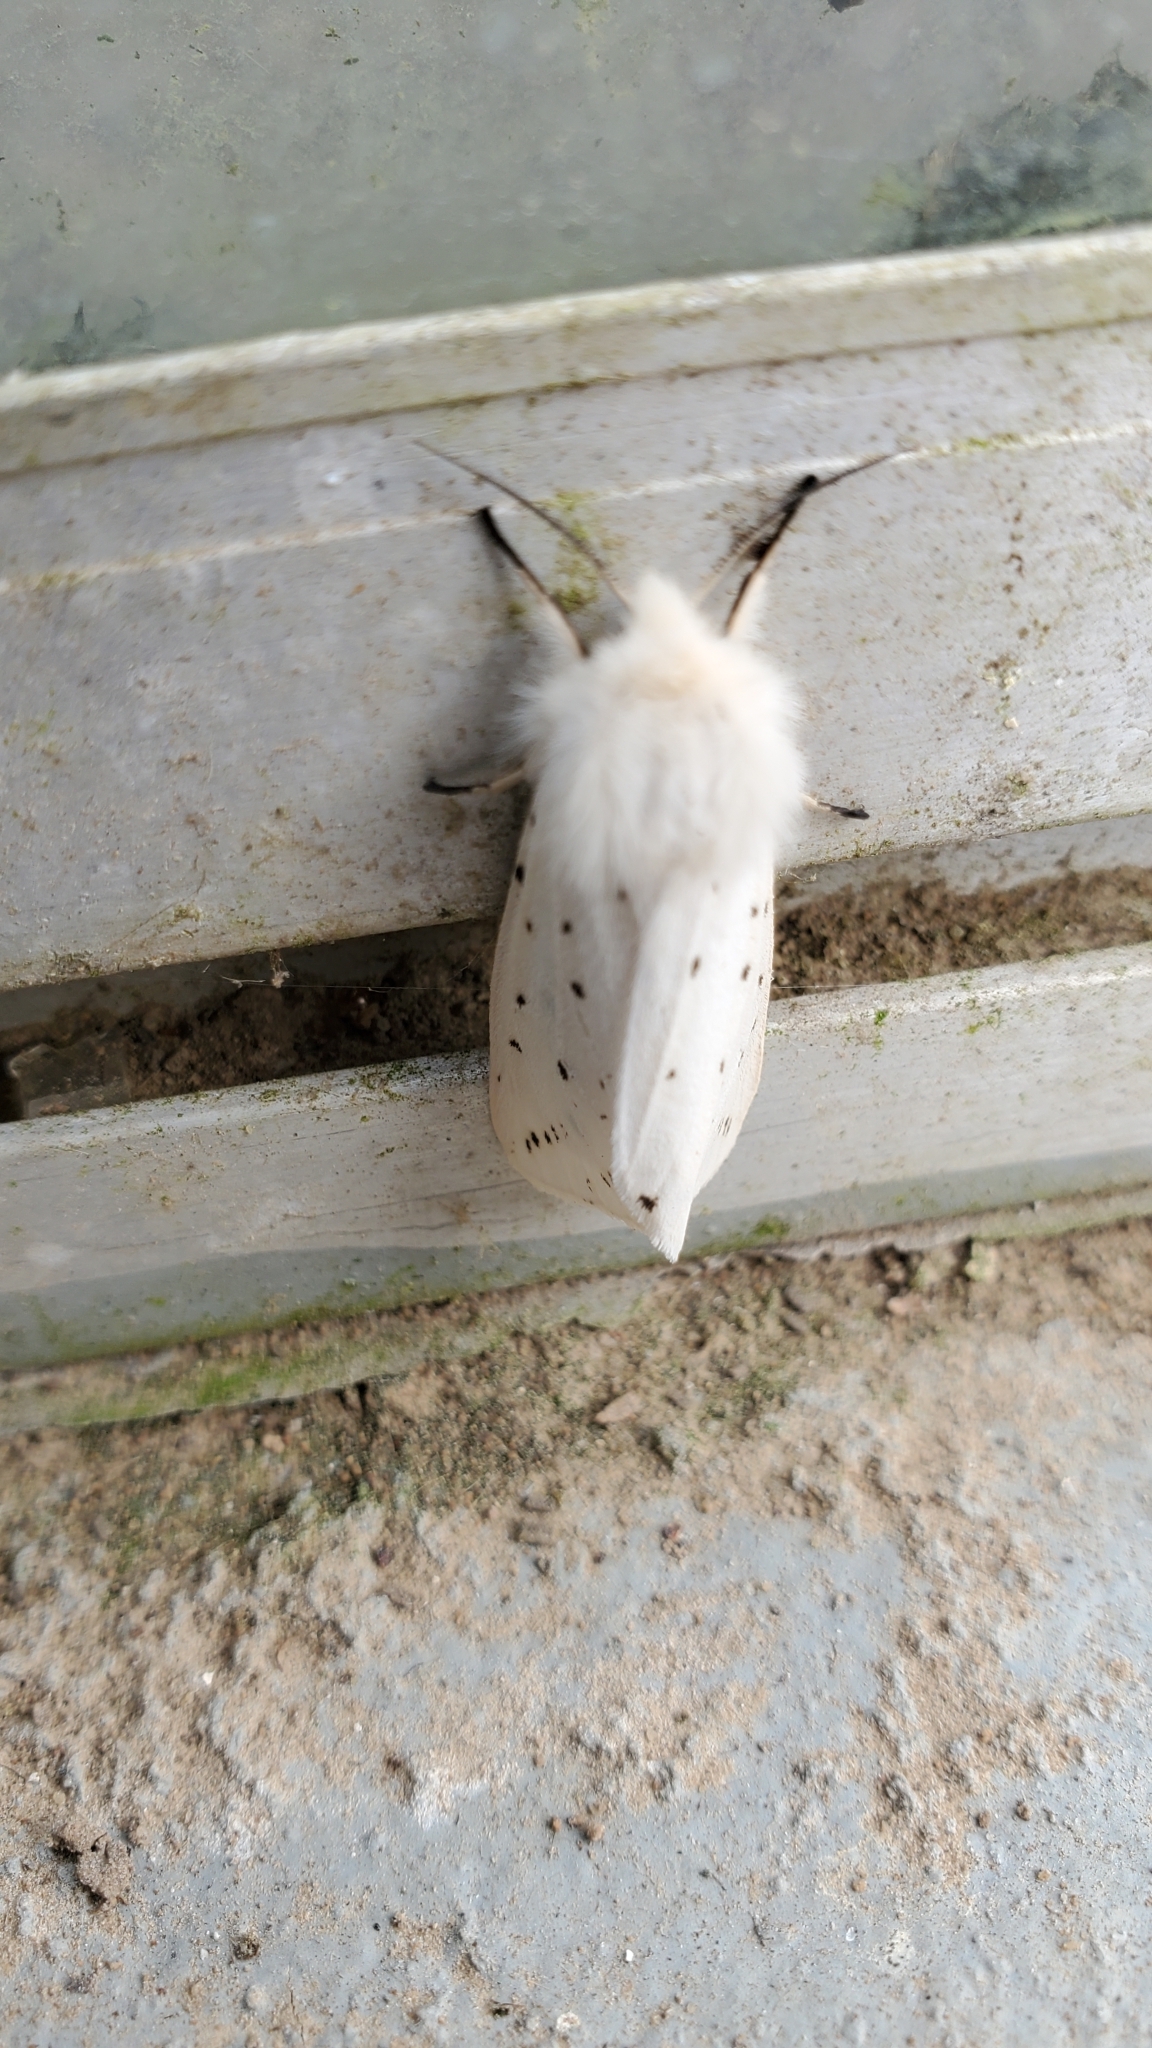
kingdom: Animalia
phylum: Arthropoda
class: Insecta
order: Lepidoptera
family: Erebidae
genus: Spilosoma
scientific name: Spilosoma lubricipeda
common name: White ermine
